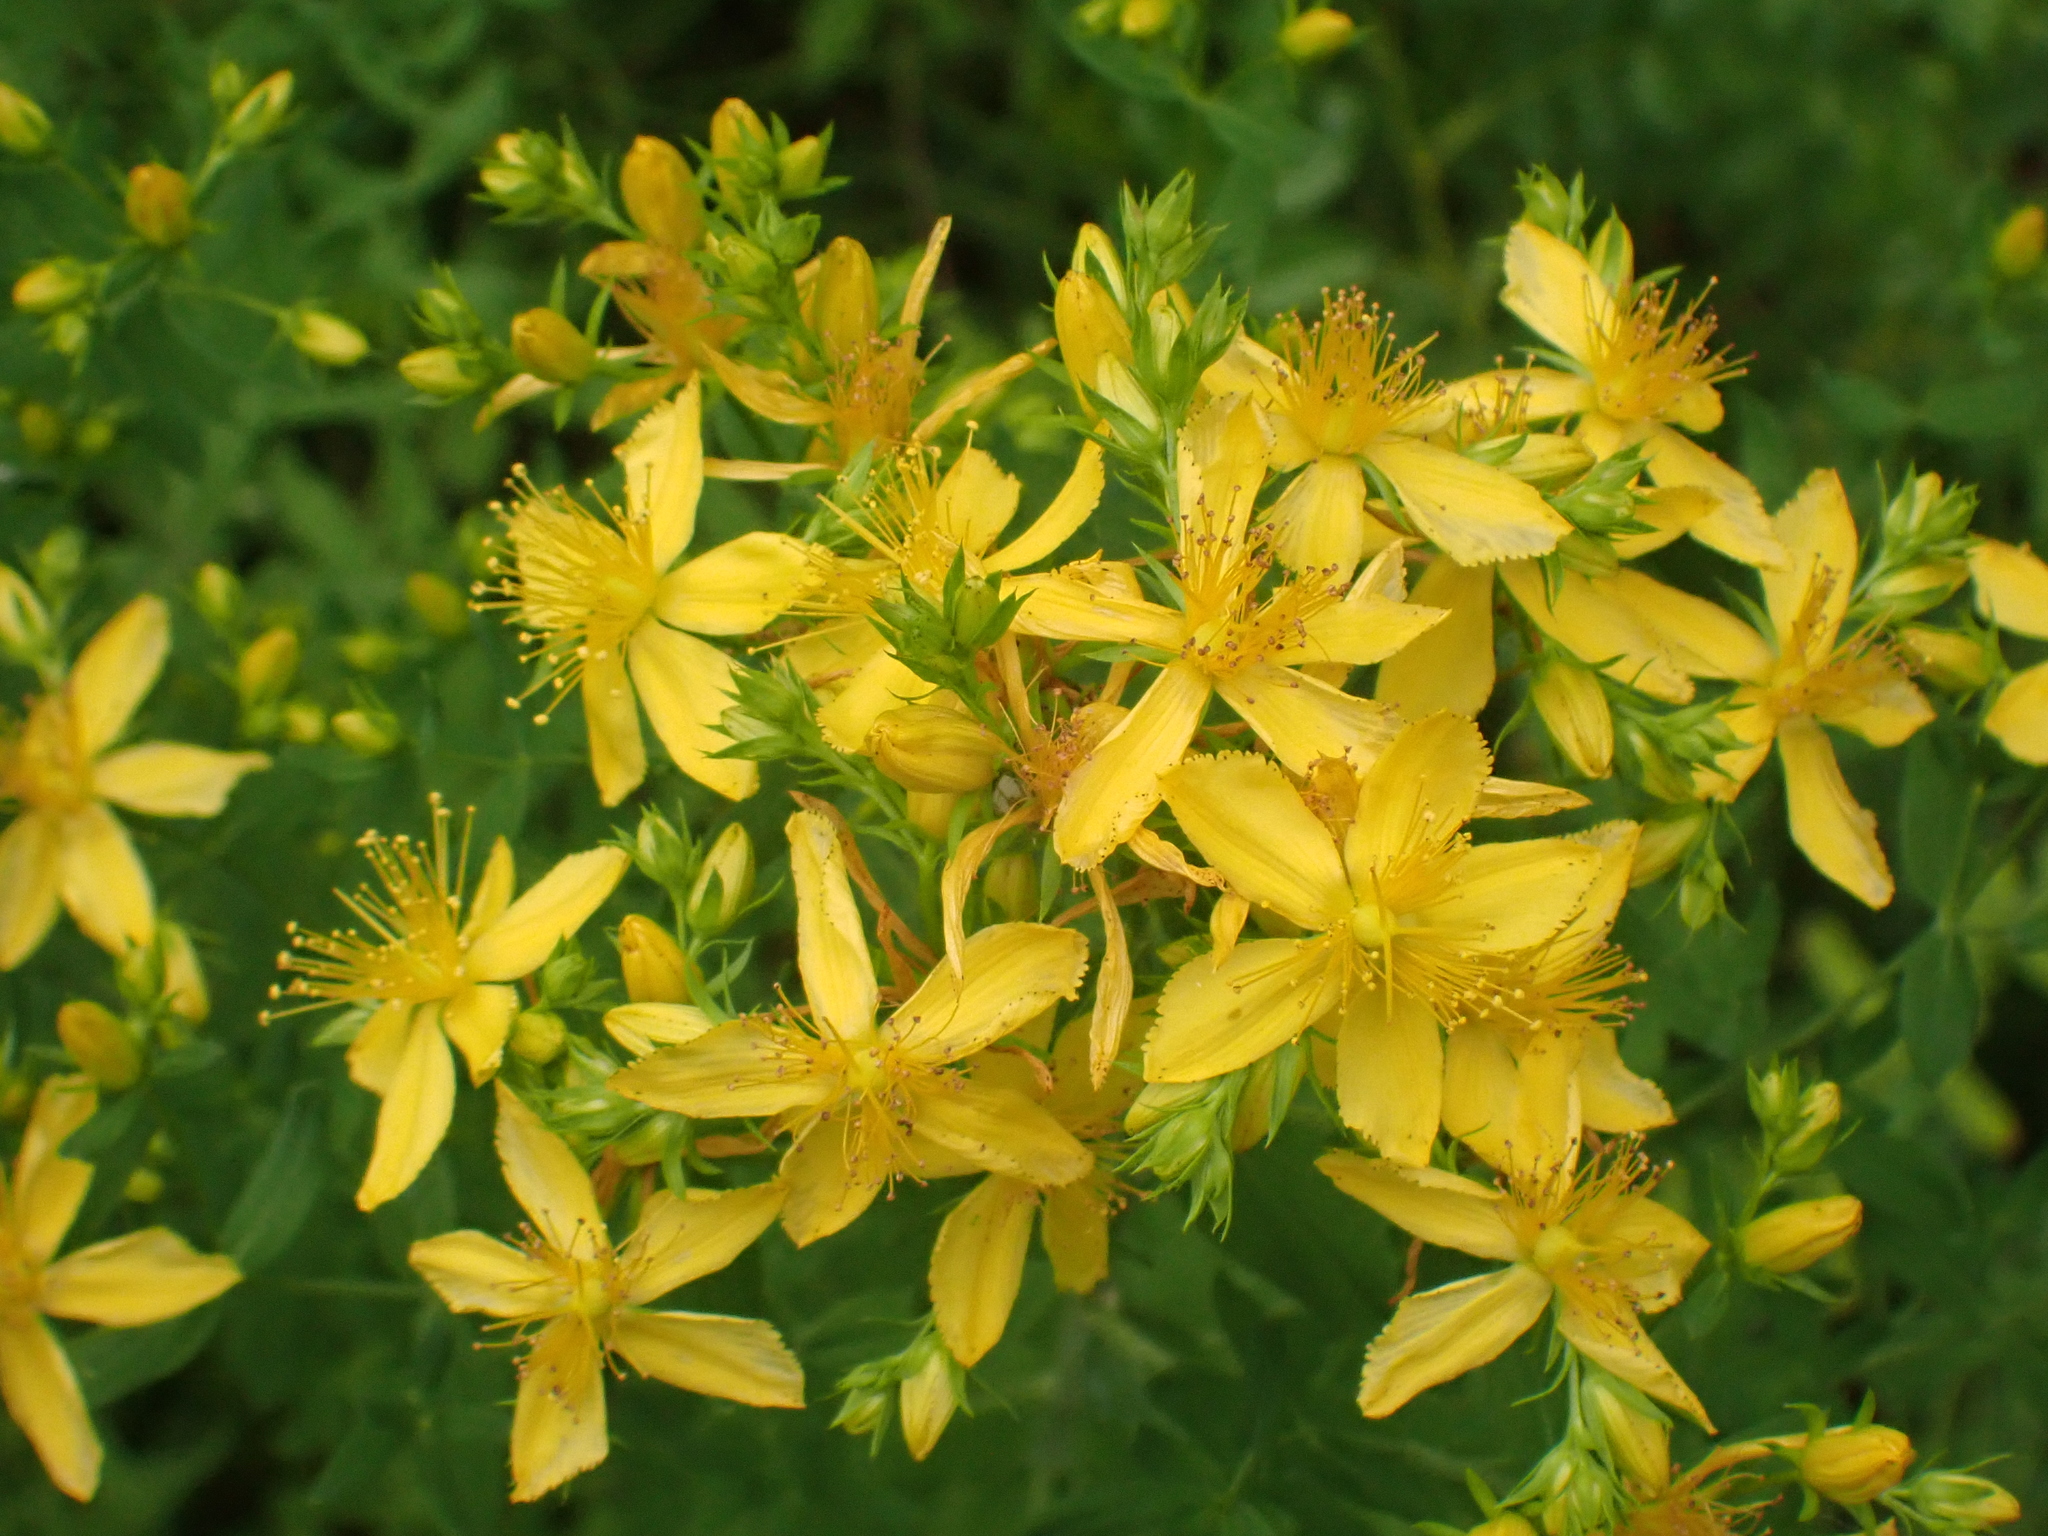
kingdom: Plantae
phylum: Tracheophyta
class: Magnoliopsida
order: Malpighiales
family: Hypericaceae
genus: Hypericum
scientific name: Hypericum perforatum
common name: Common st. johnswort
